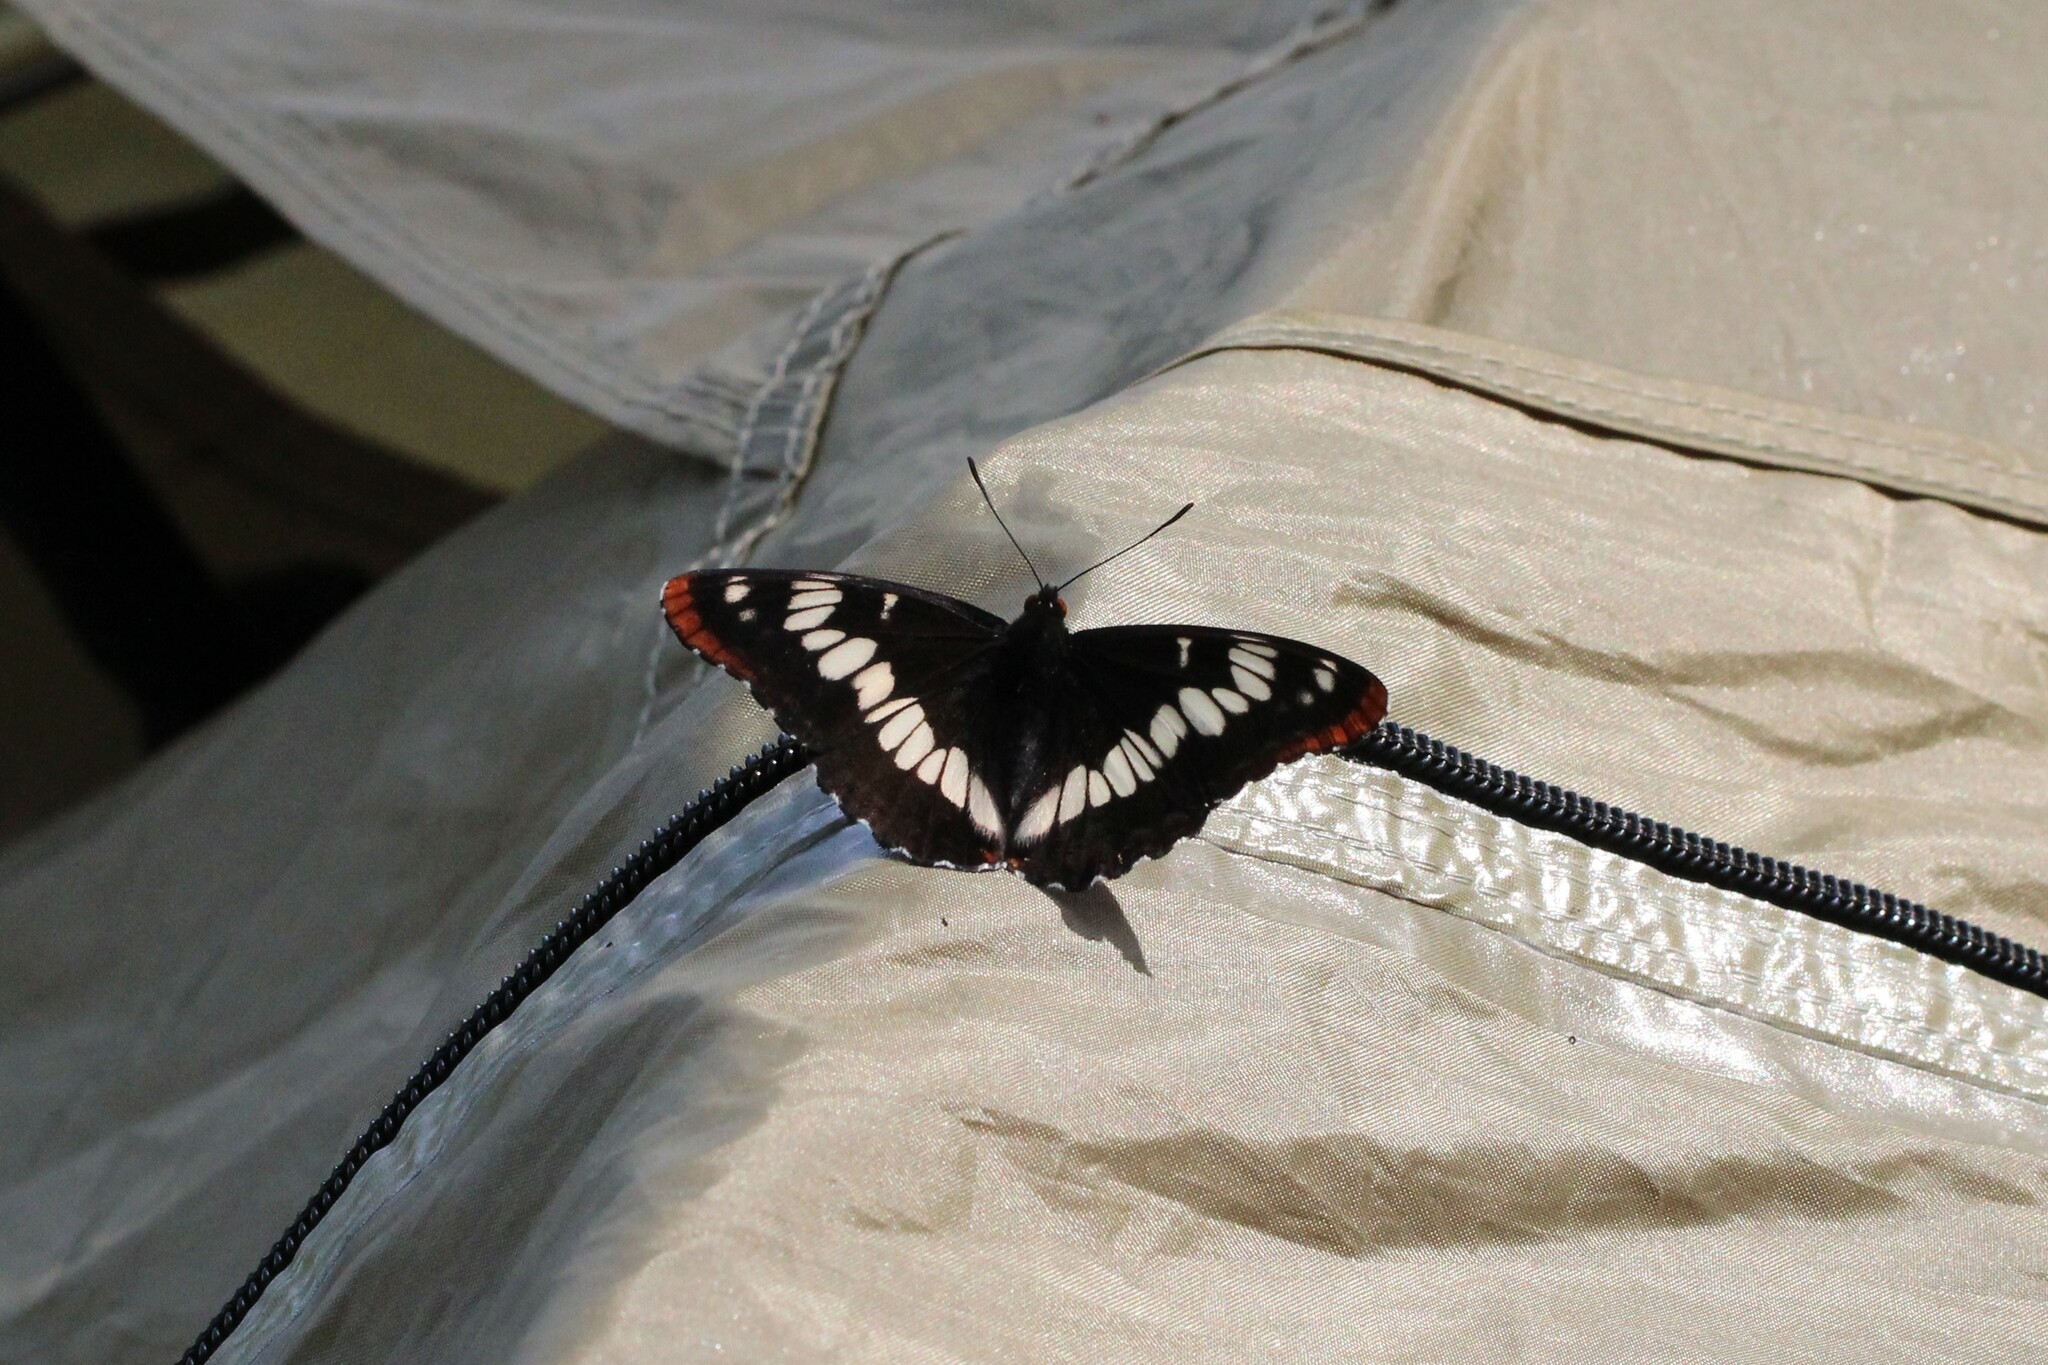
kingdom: Animalia
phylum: Arthropoda
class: Insecta
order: Lepidoptera
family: Nymphalidae
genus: Limenitis
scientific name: Limenitis lorquini
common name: Lorquin's admiral
